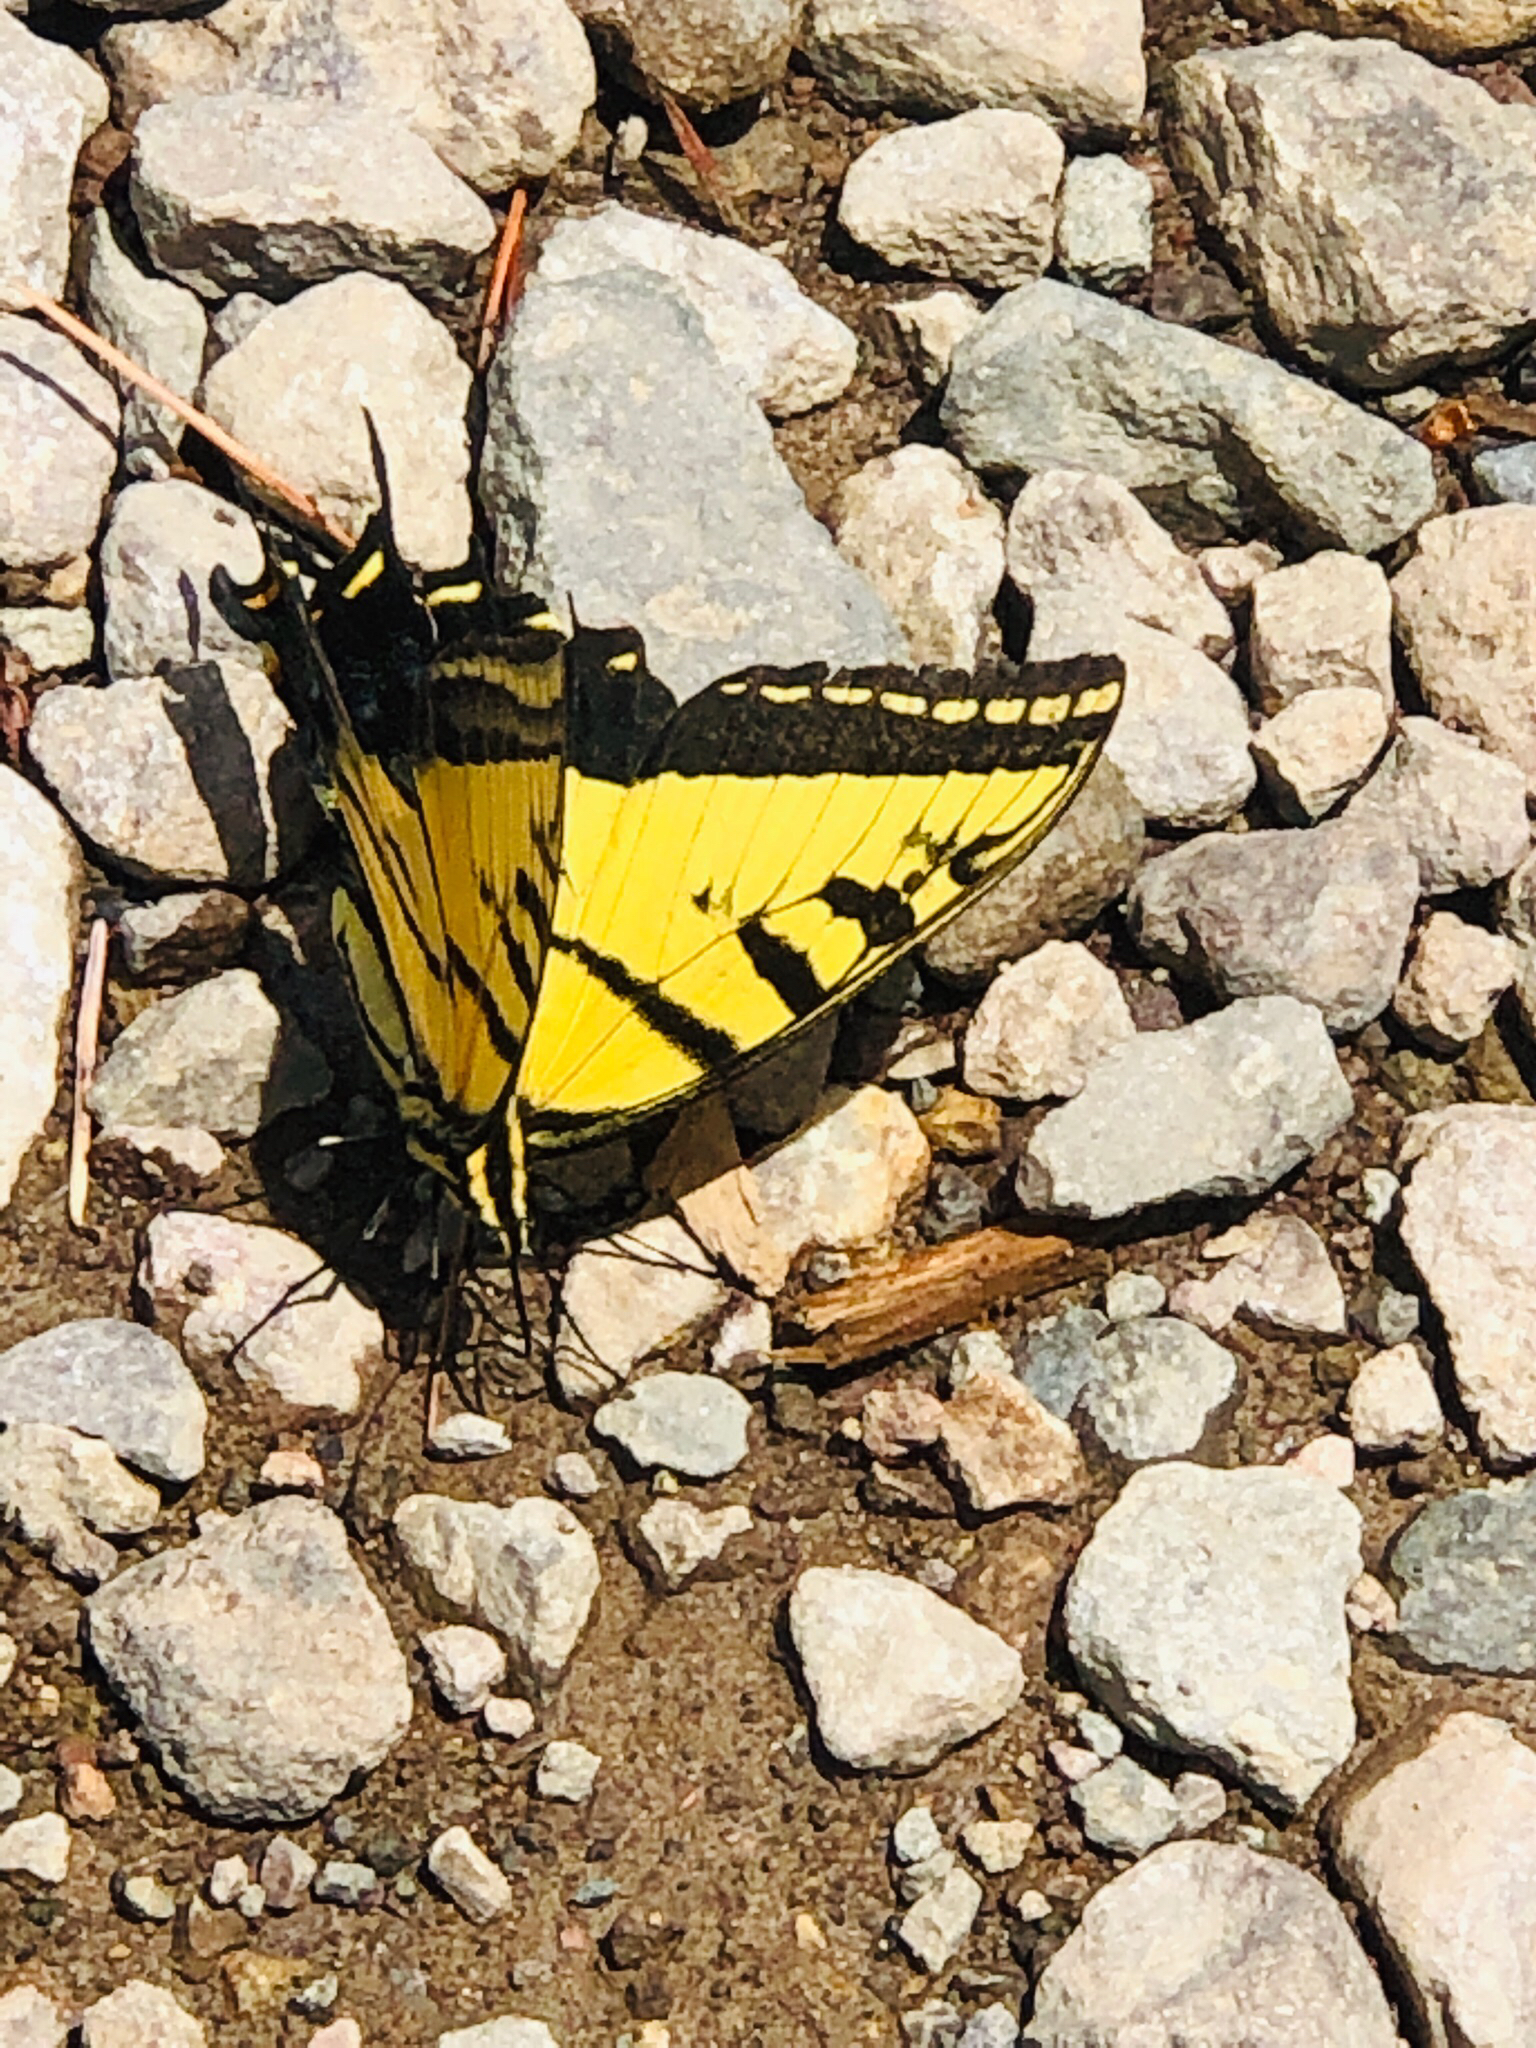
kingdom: Animalia
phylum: Arthropoda
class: Insecta
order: Lepidoptera
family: Papilionidae
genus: Papilio
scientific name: Papilio multicaudata
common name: Two-tailed tiger swallowtail
